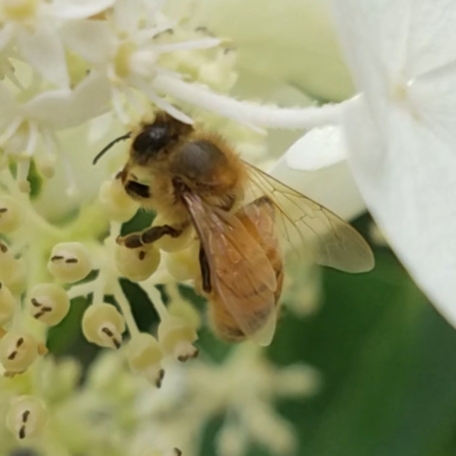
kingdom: Animalia
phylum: Arthropoda
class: Insecta
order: Hymenoptera
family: Apidae
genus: Apis
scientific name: Apis mellifera
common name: Honey bee
